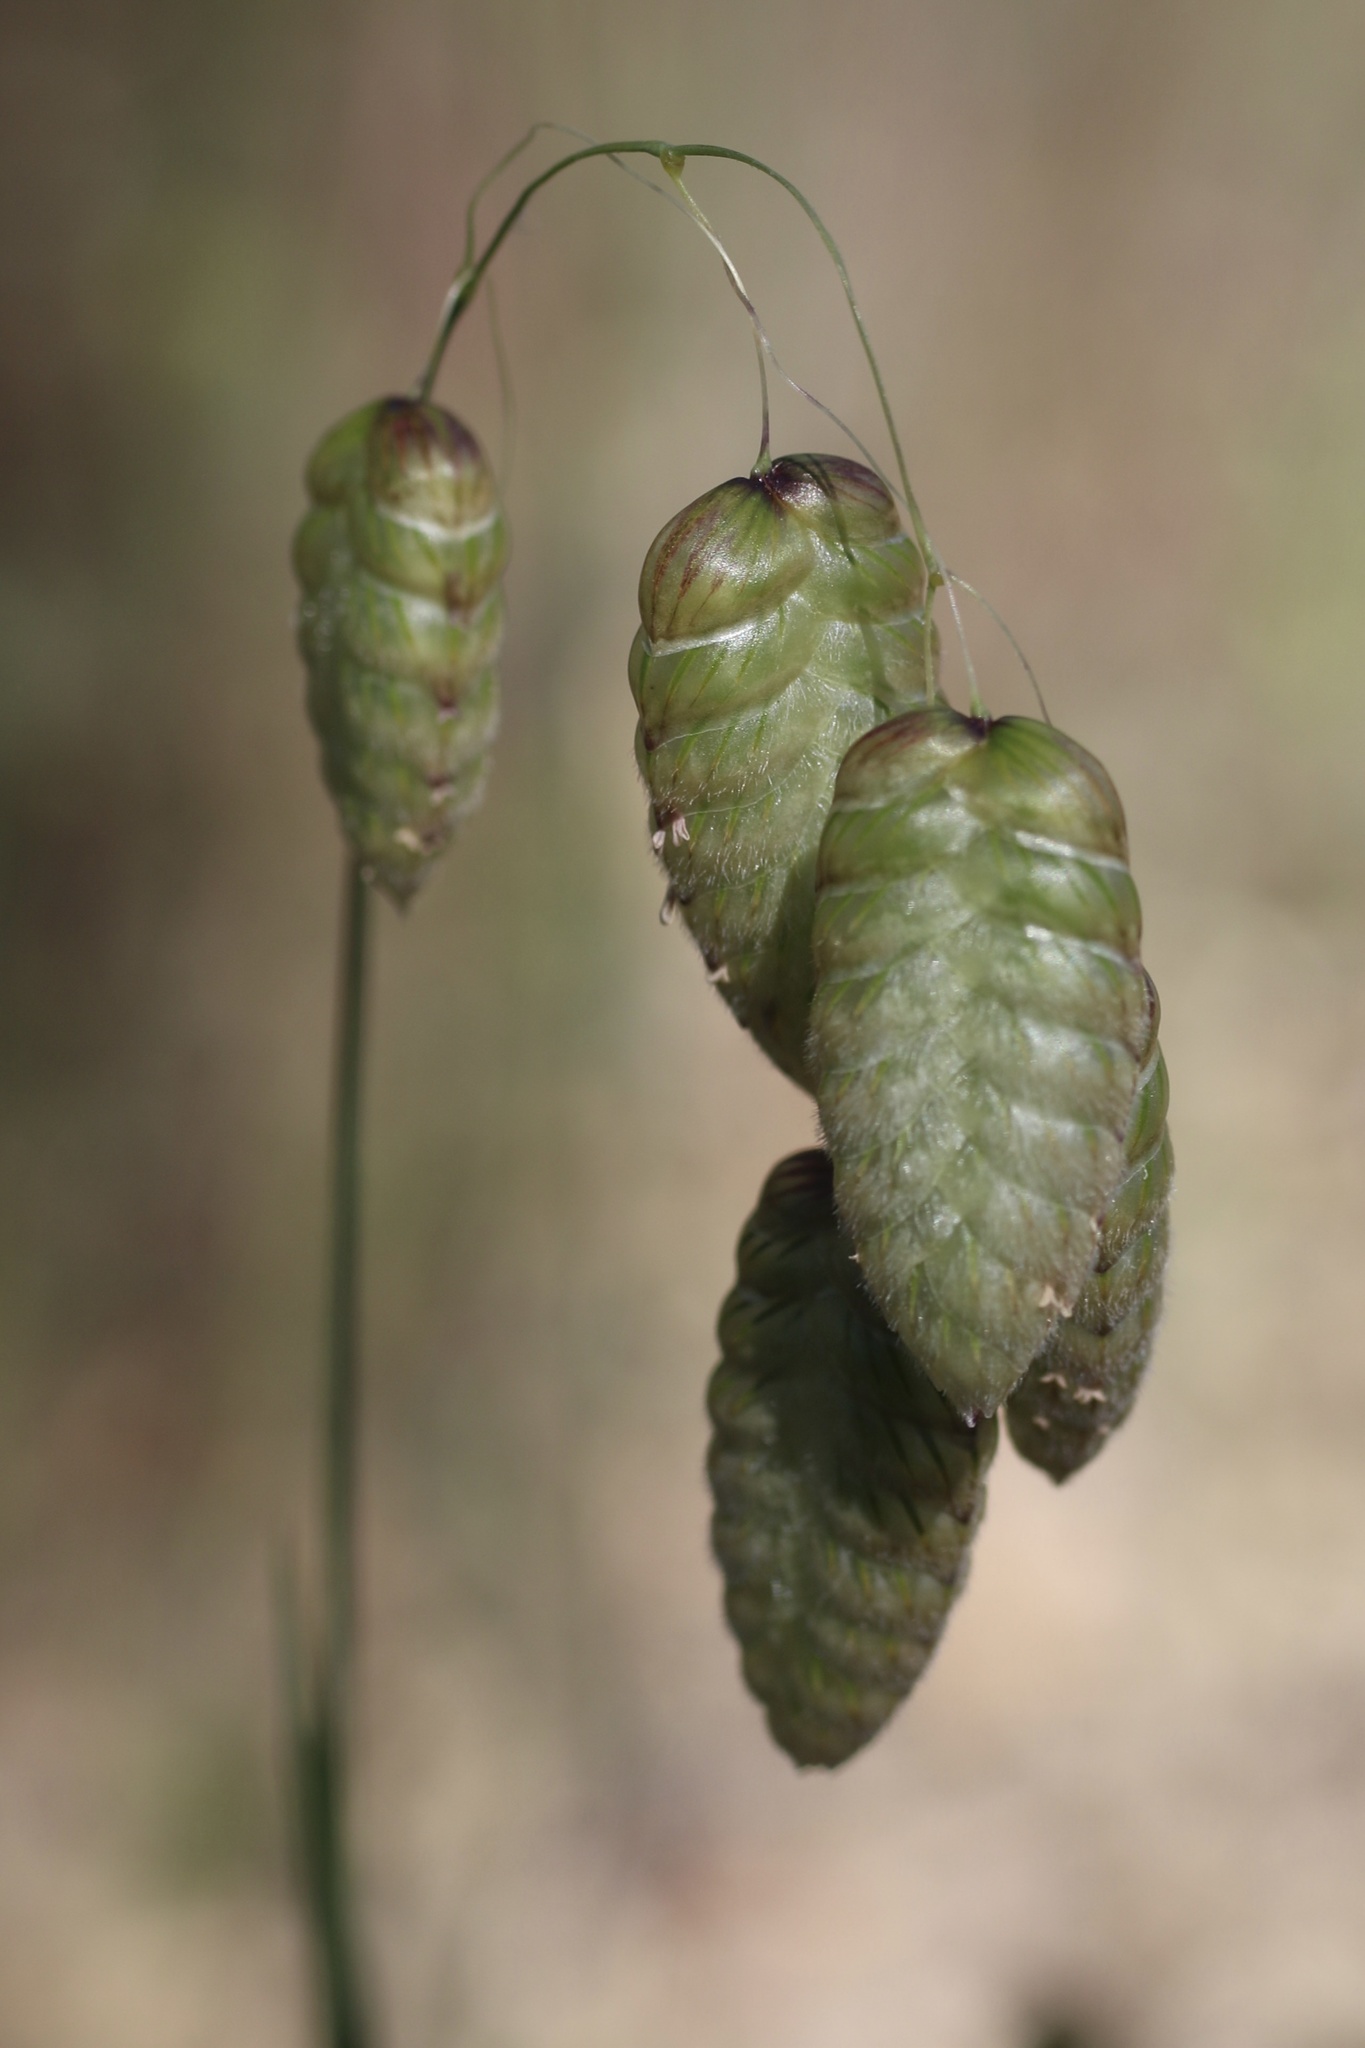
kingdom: Plantae
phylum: Tracheophyta
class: Liliopsida
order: Poales
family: Poaceae
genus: Briza
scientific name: Briza maxima
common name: Big quakinggrass
